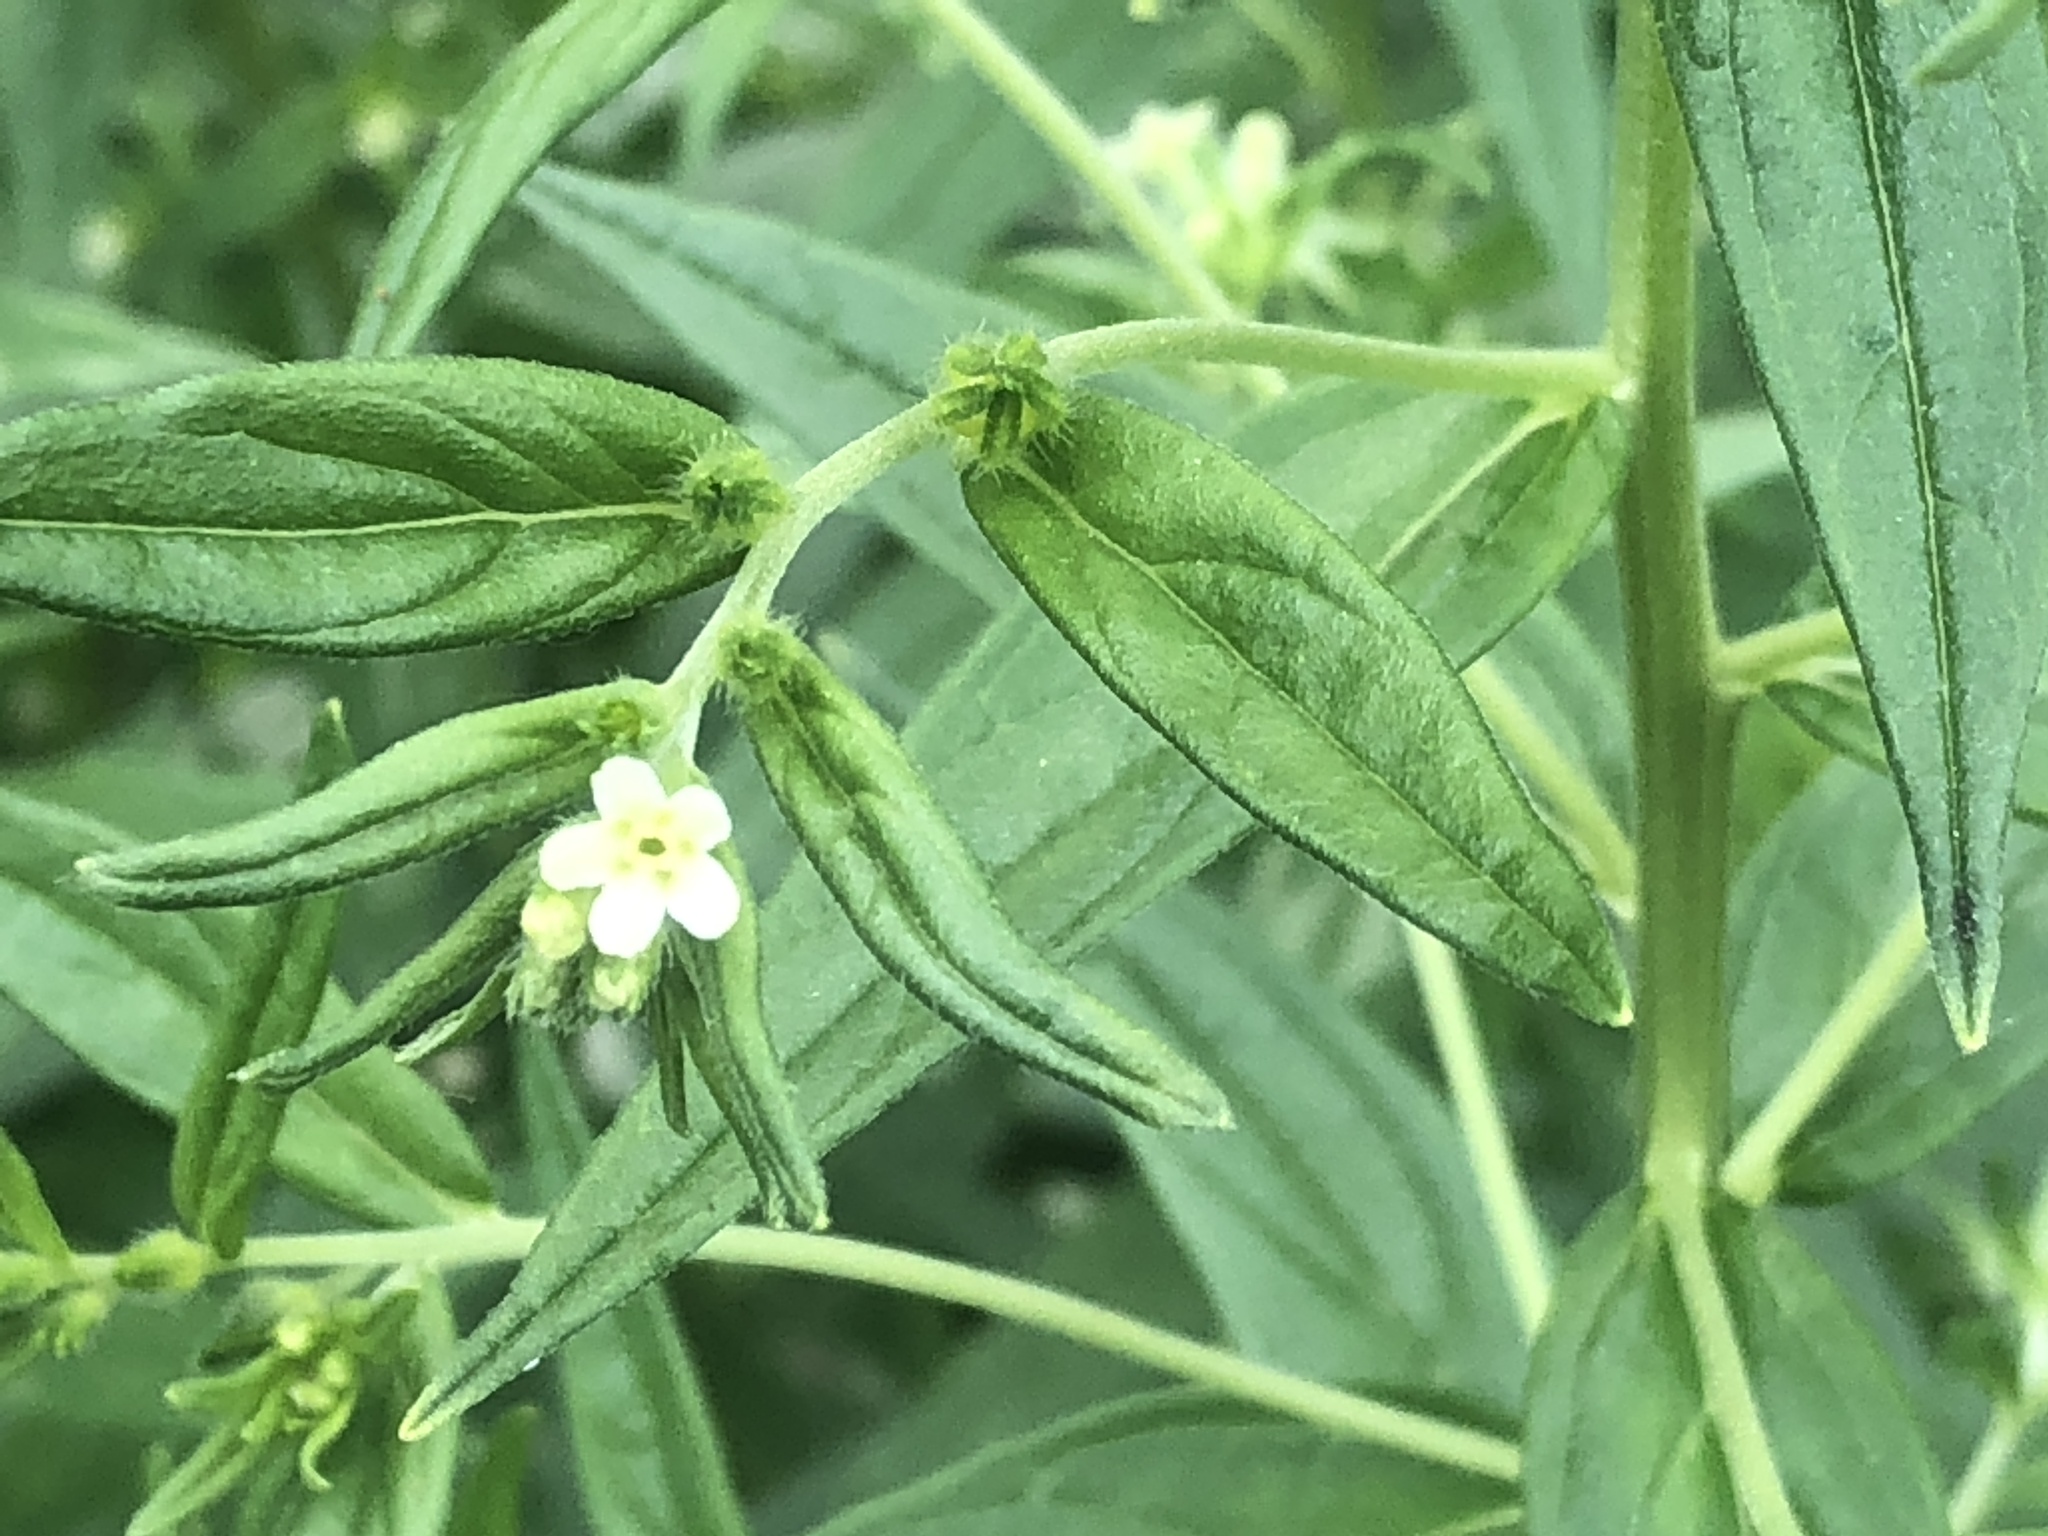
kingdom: Plantae
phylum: Tracheophyta
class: Magnoliopsida
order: Boraginales
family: Boraginaceae
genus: Lithospermum
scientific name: Lithospermum officinale
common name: Common gromwell
